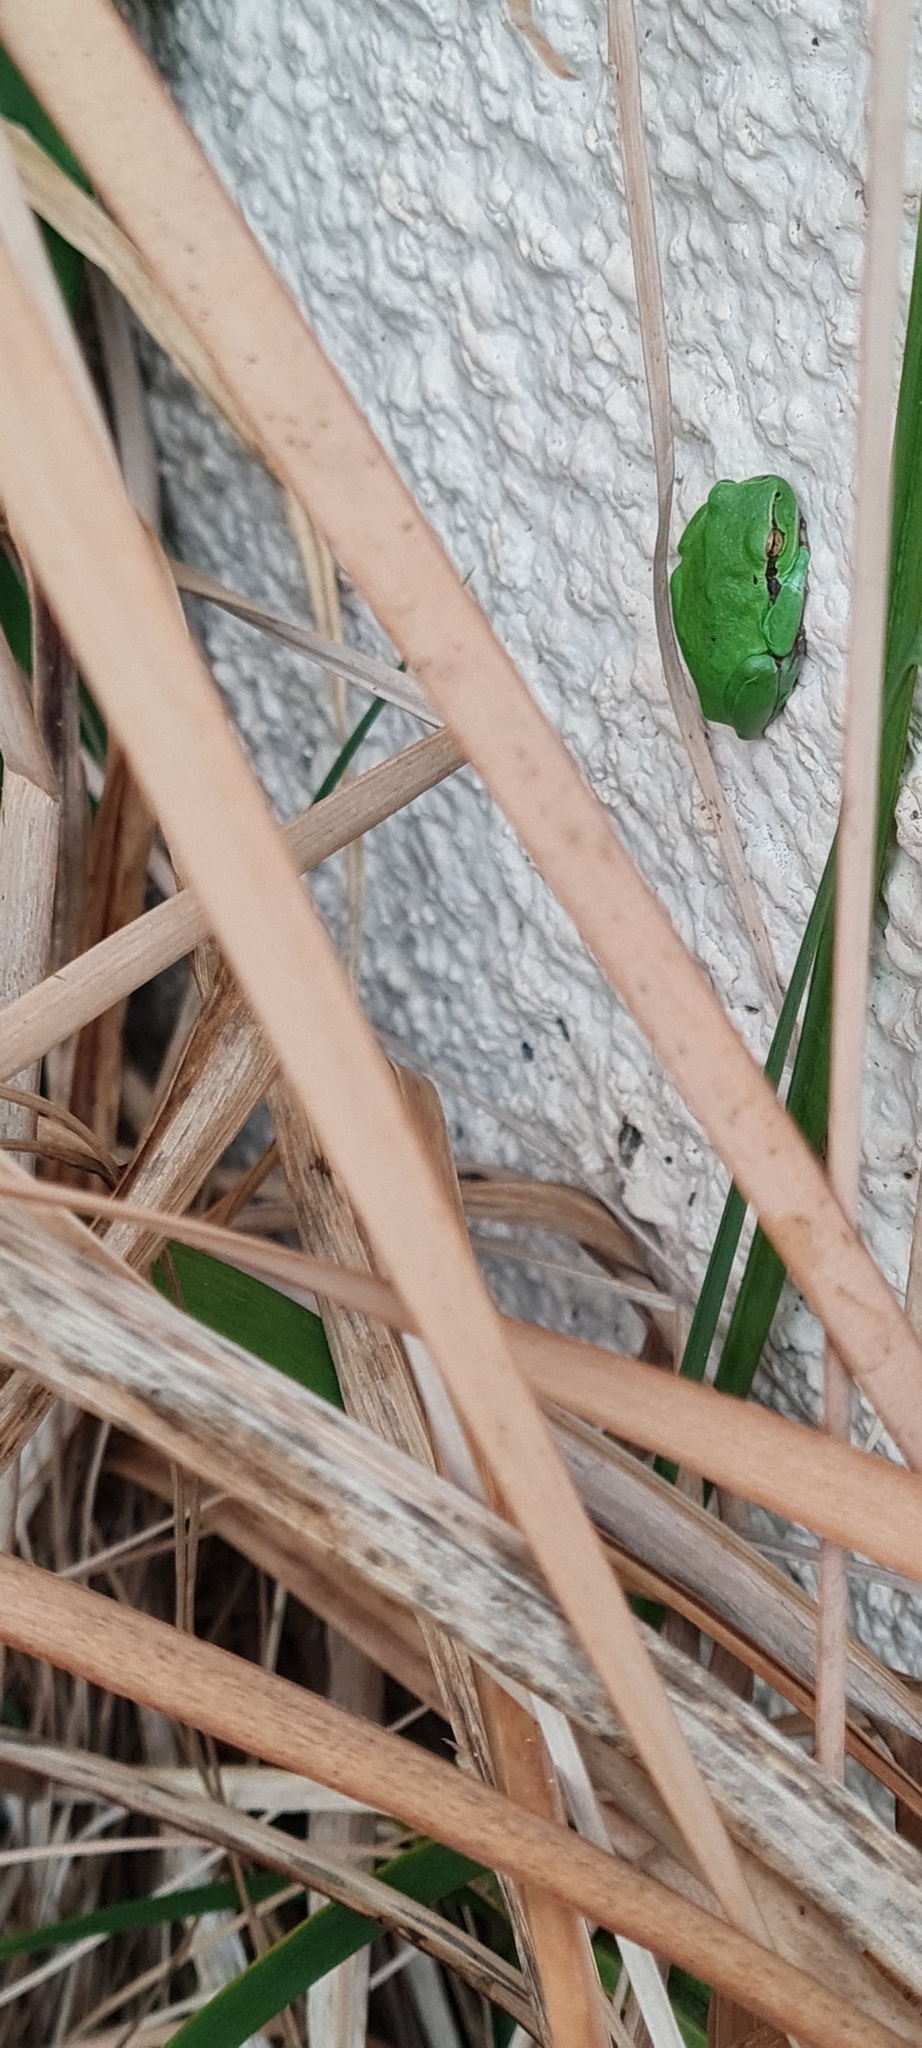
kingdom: Animalia
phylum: Chordata
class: Amphibia
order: Anura
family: Hylidae
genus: Hyla
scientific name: Hyla meridionalis
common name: Stripeless tree frog
